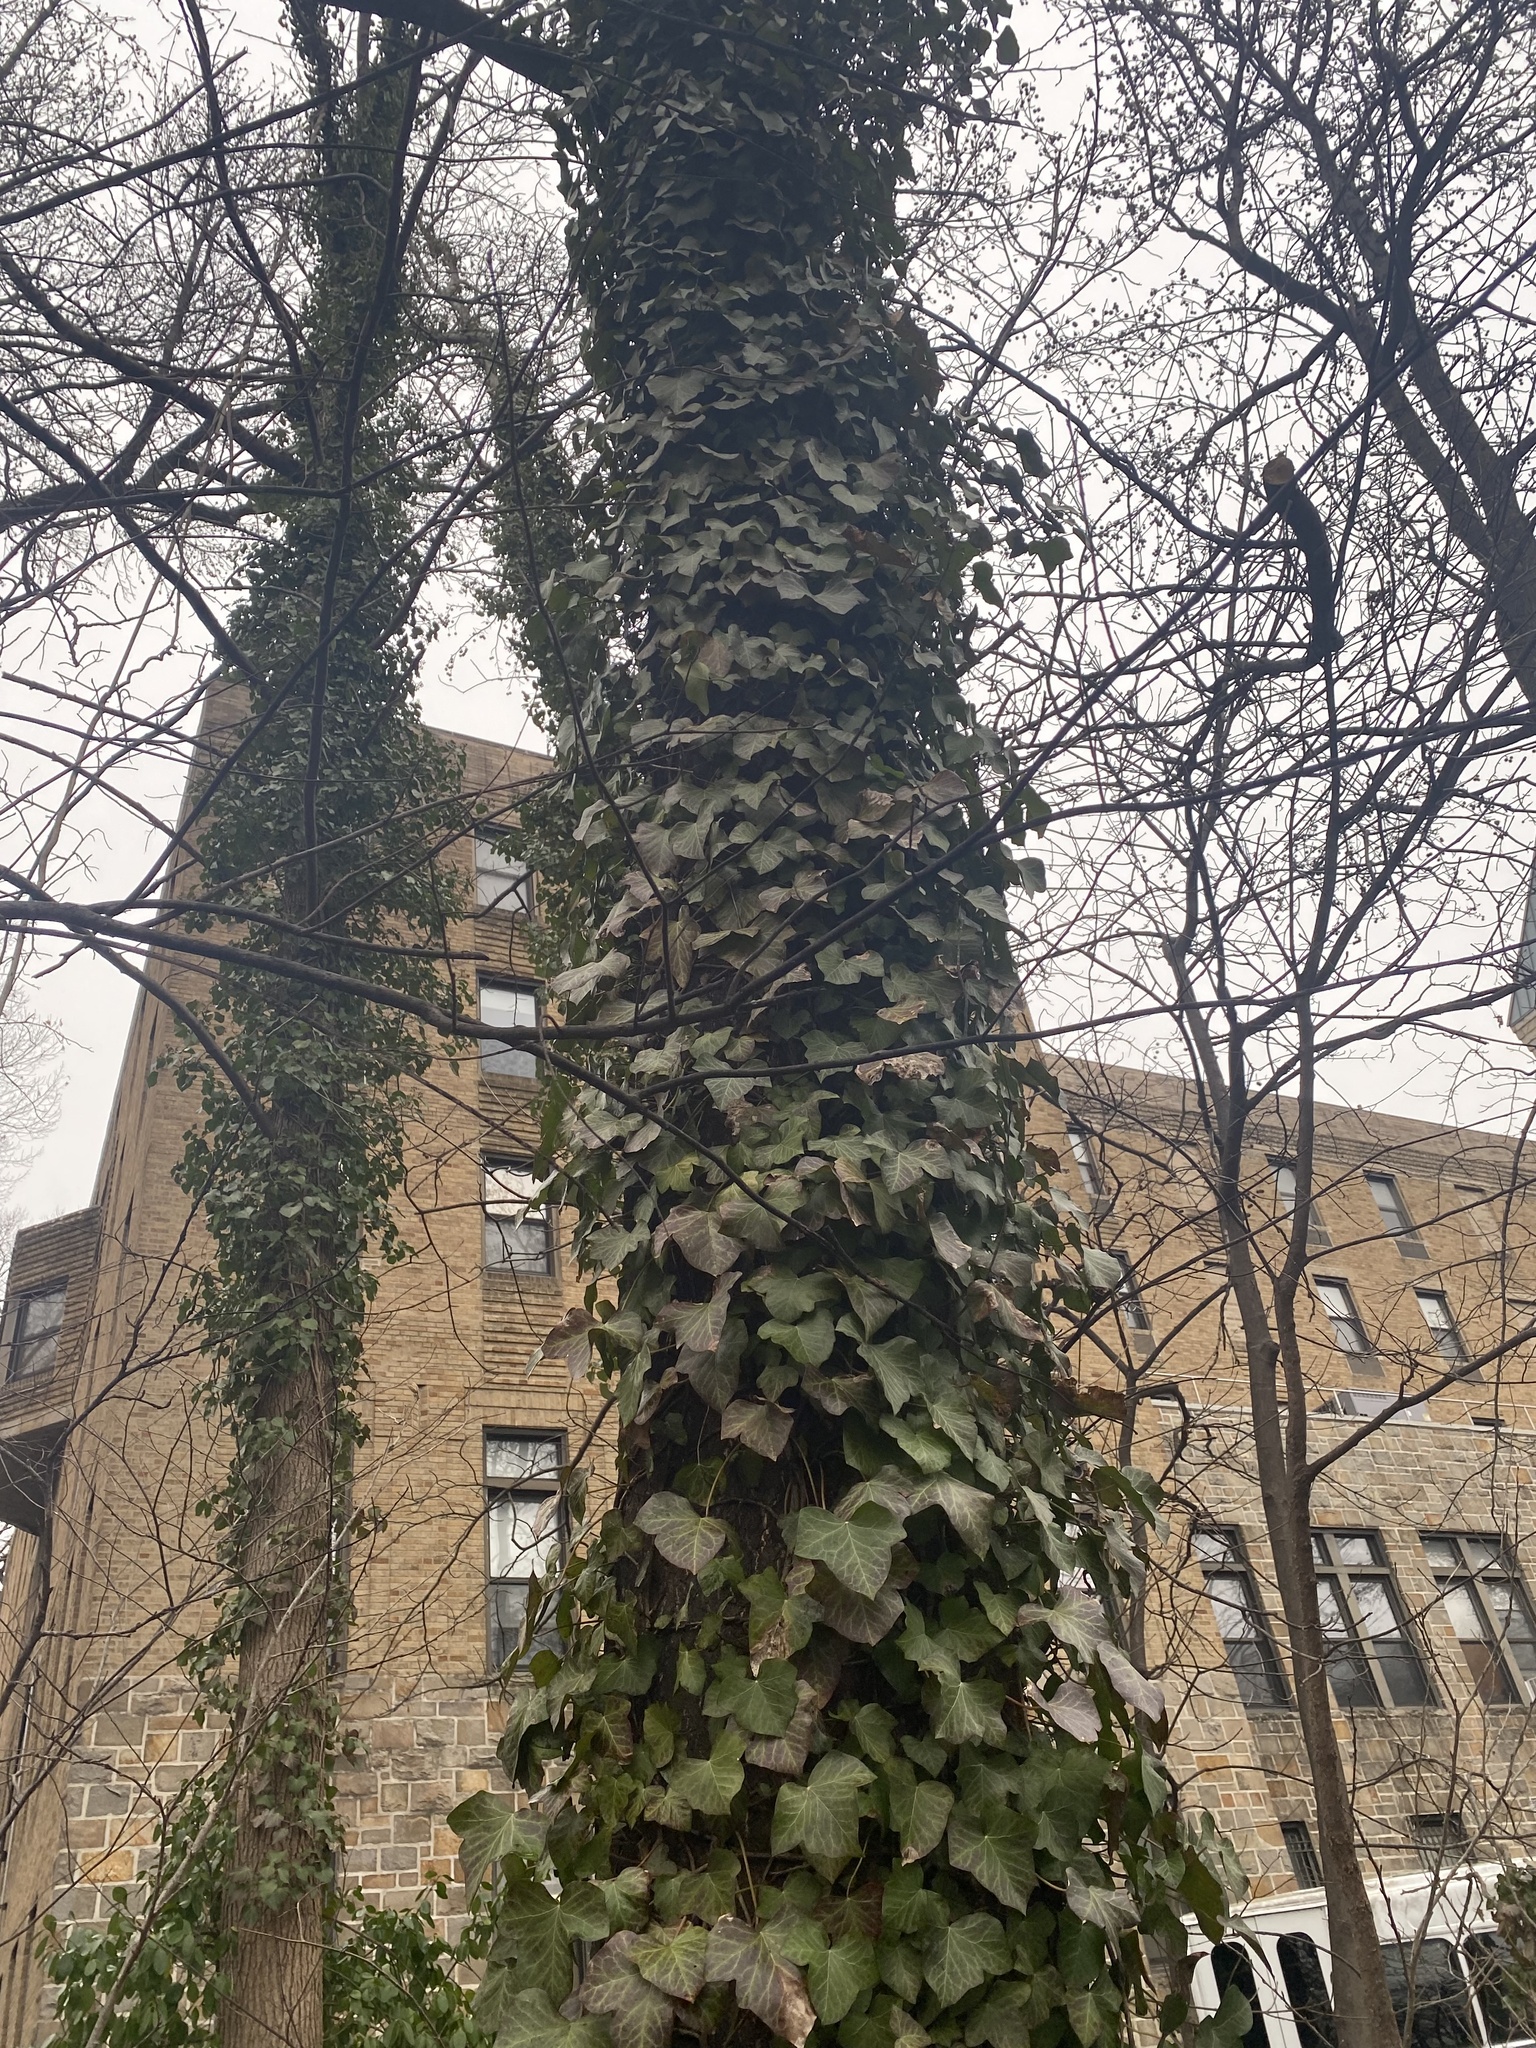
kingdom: Plantae
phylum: Tracheophyta
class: Magnoliopsida
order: Apiales
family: Araliaceae
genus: Hedera
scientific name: Hedera helix
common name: Ivy
